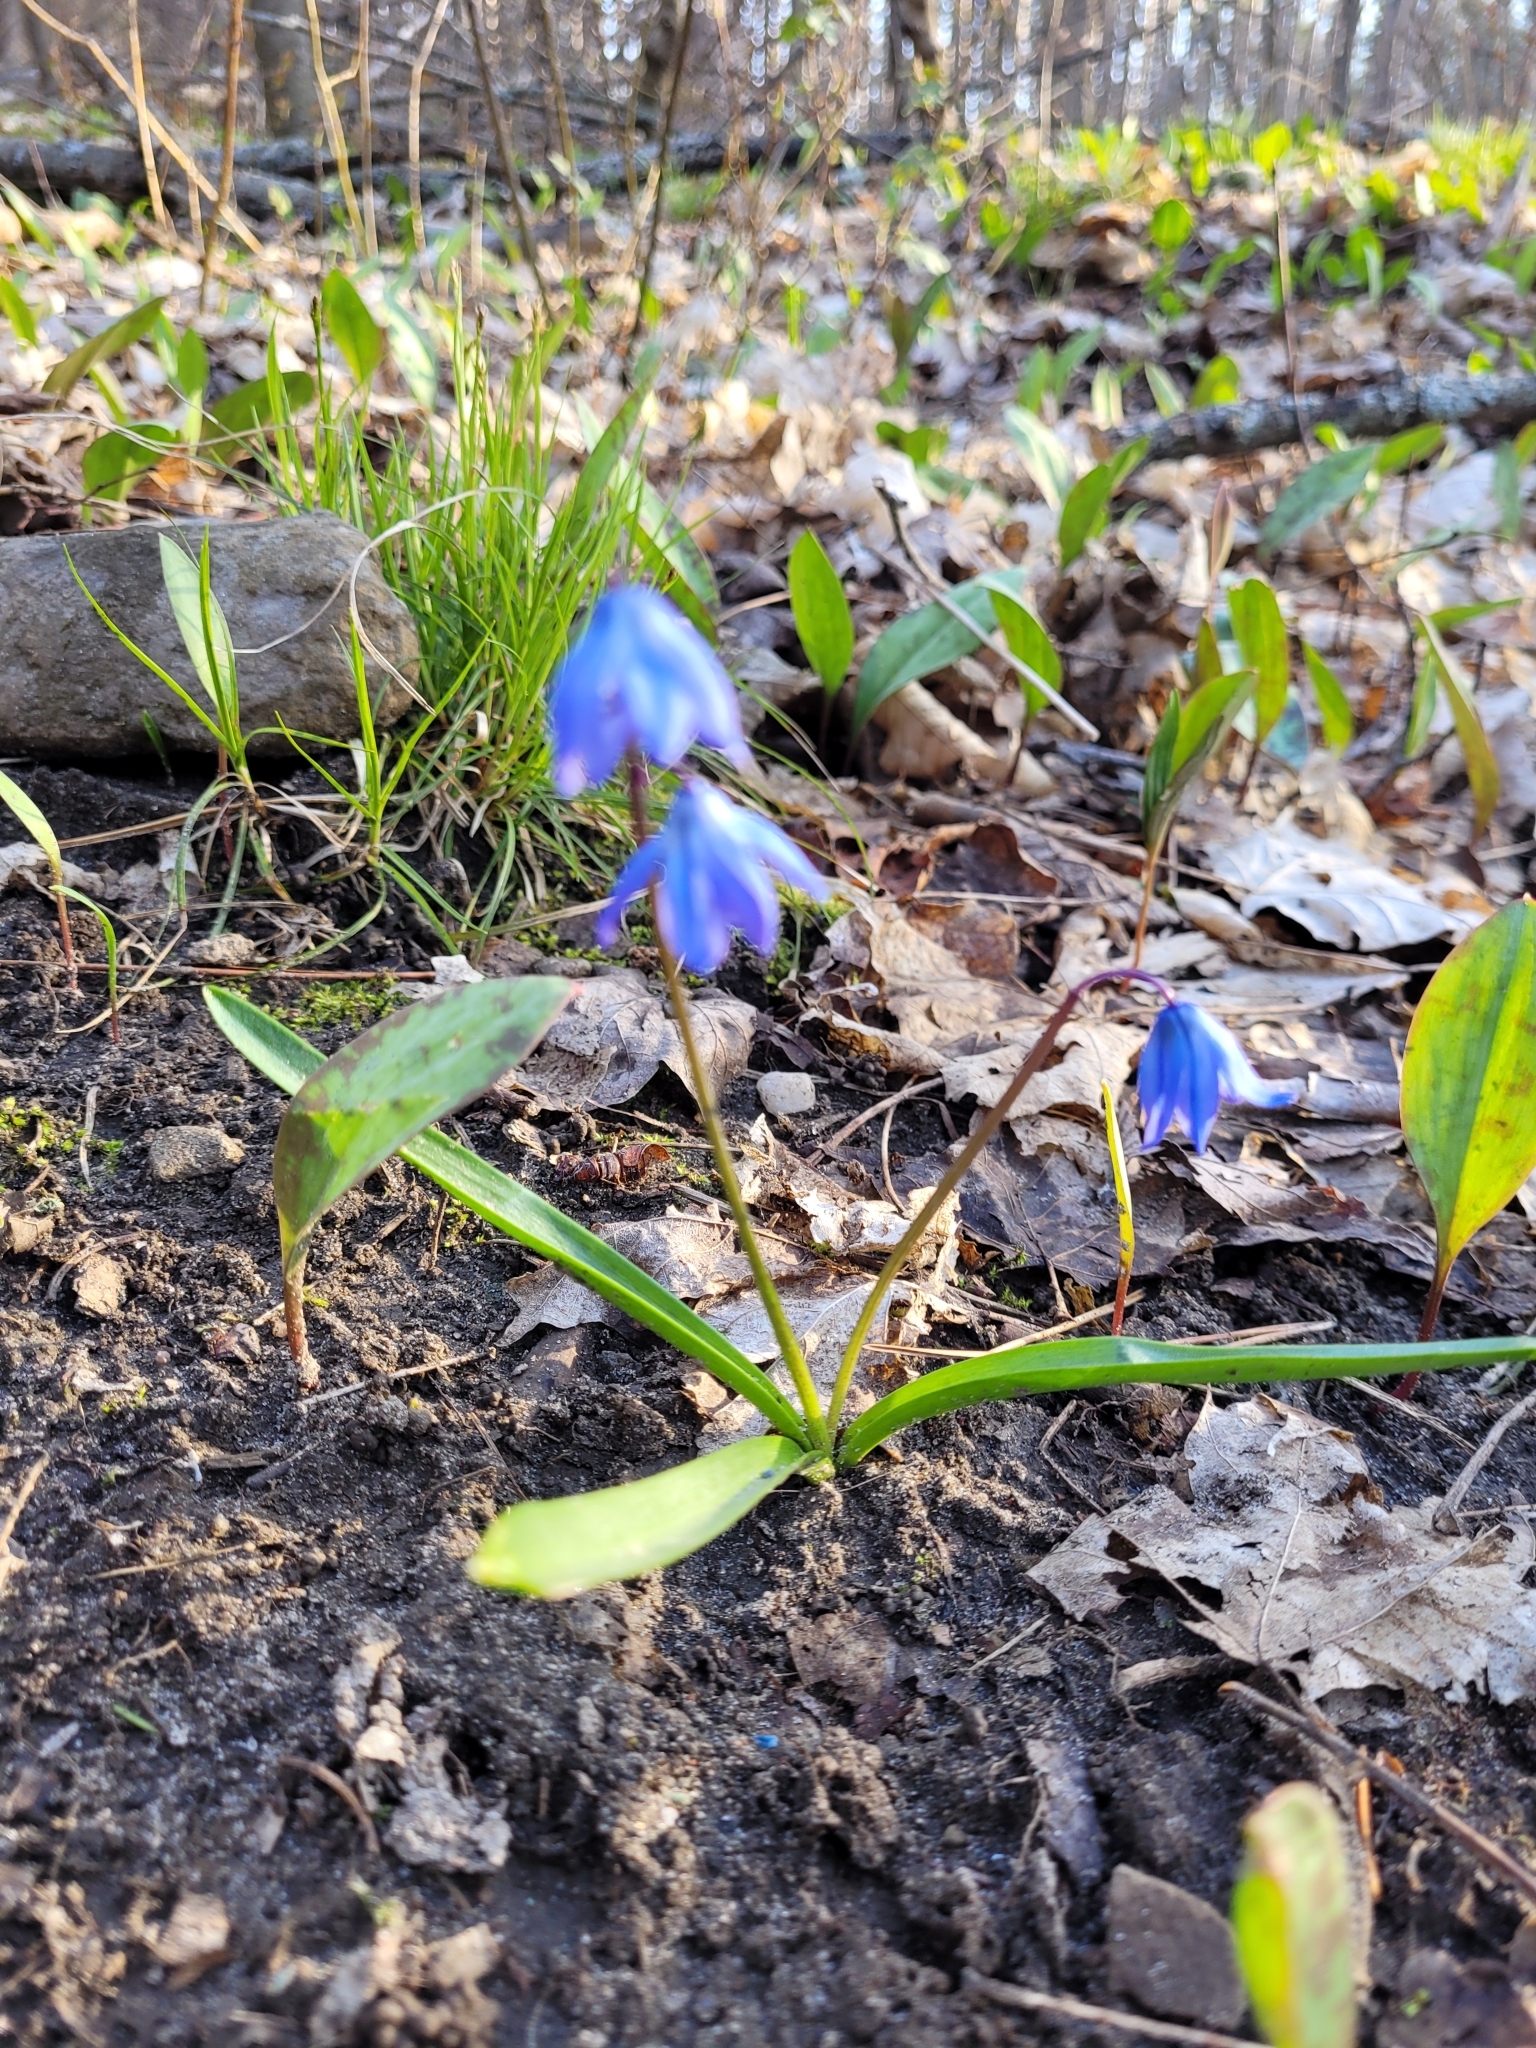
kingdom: Plantae
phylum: Tracheophyta
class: Liliopsida
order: Asparagales
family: Asparagaceae
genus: Scilla
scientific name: Scilla siberica
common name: Siberian squill
